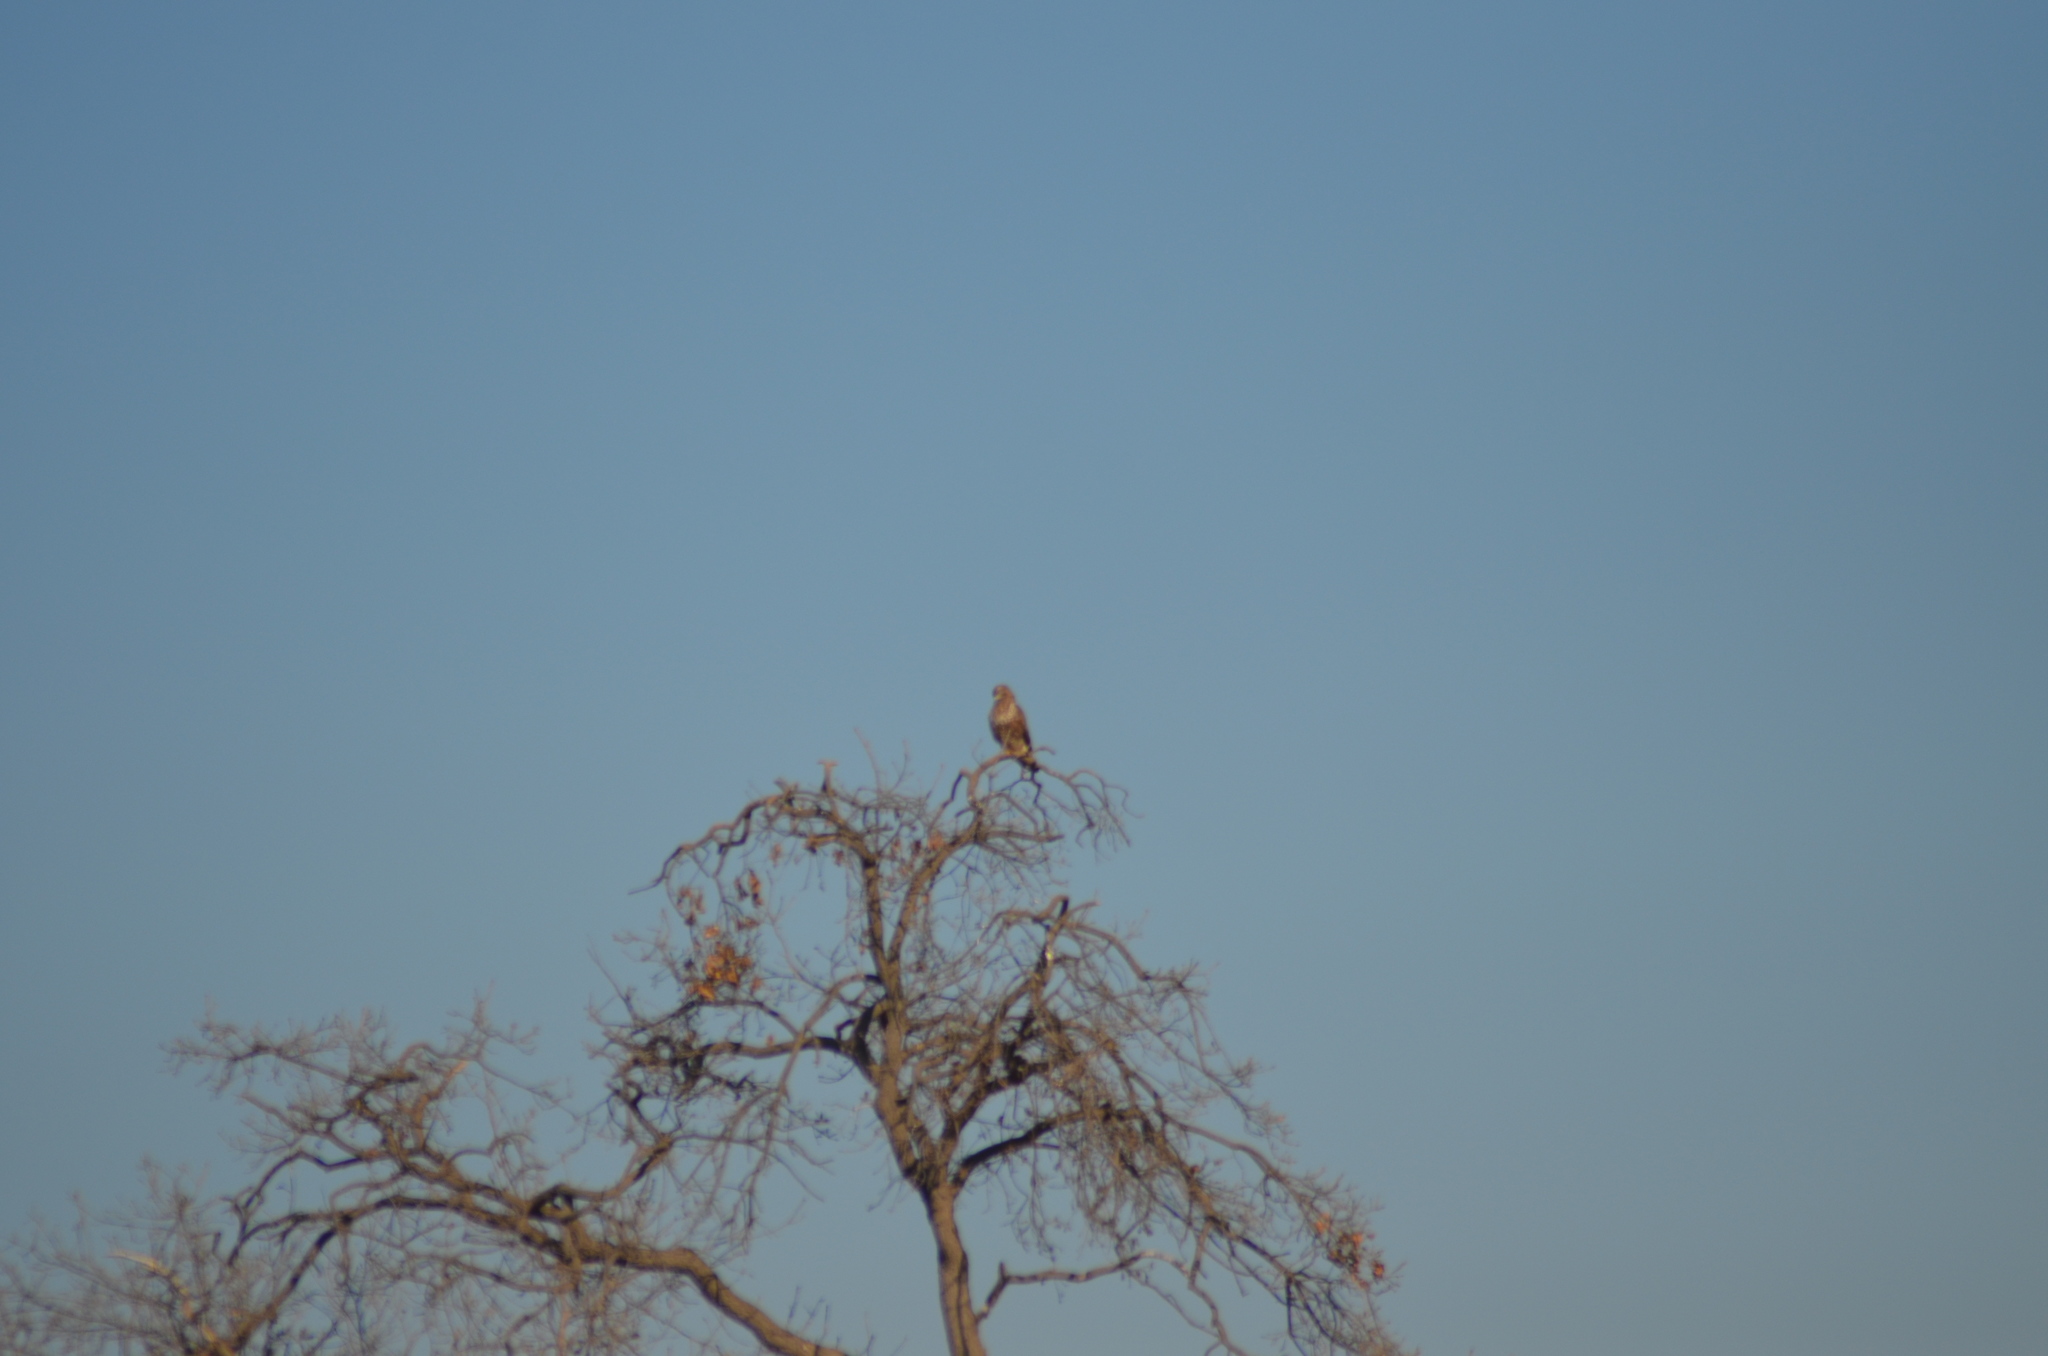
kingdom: Animalia
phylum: Chordata
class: Aves
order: Accipitriformes
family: Accipitridae
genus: Buteo
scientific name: Buteo buteo
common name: Common buzzard
